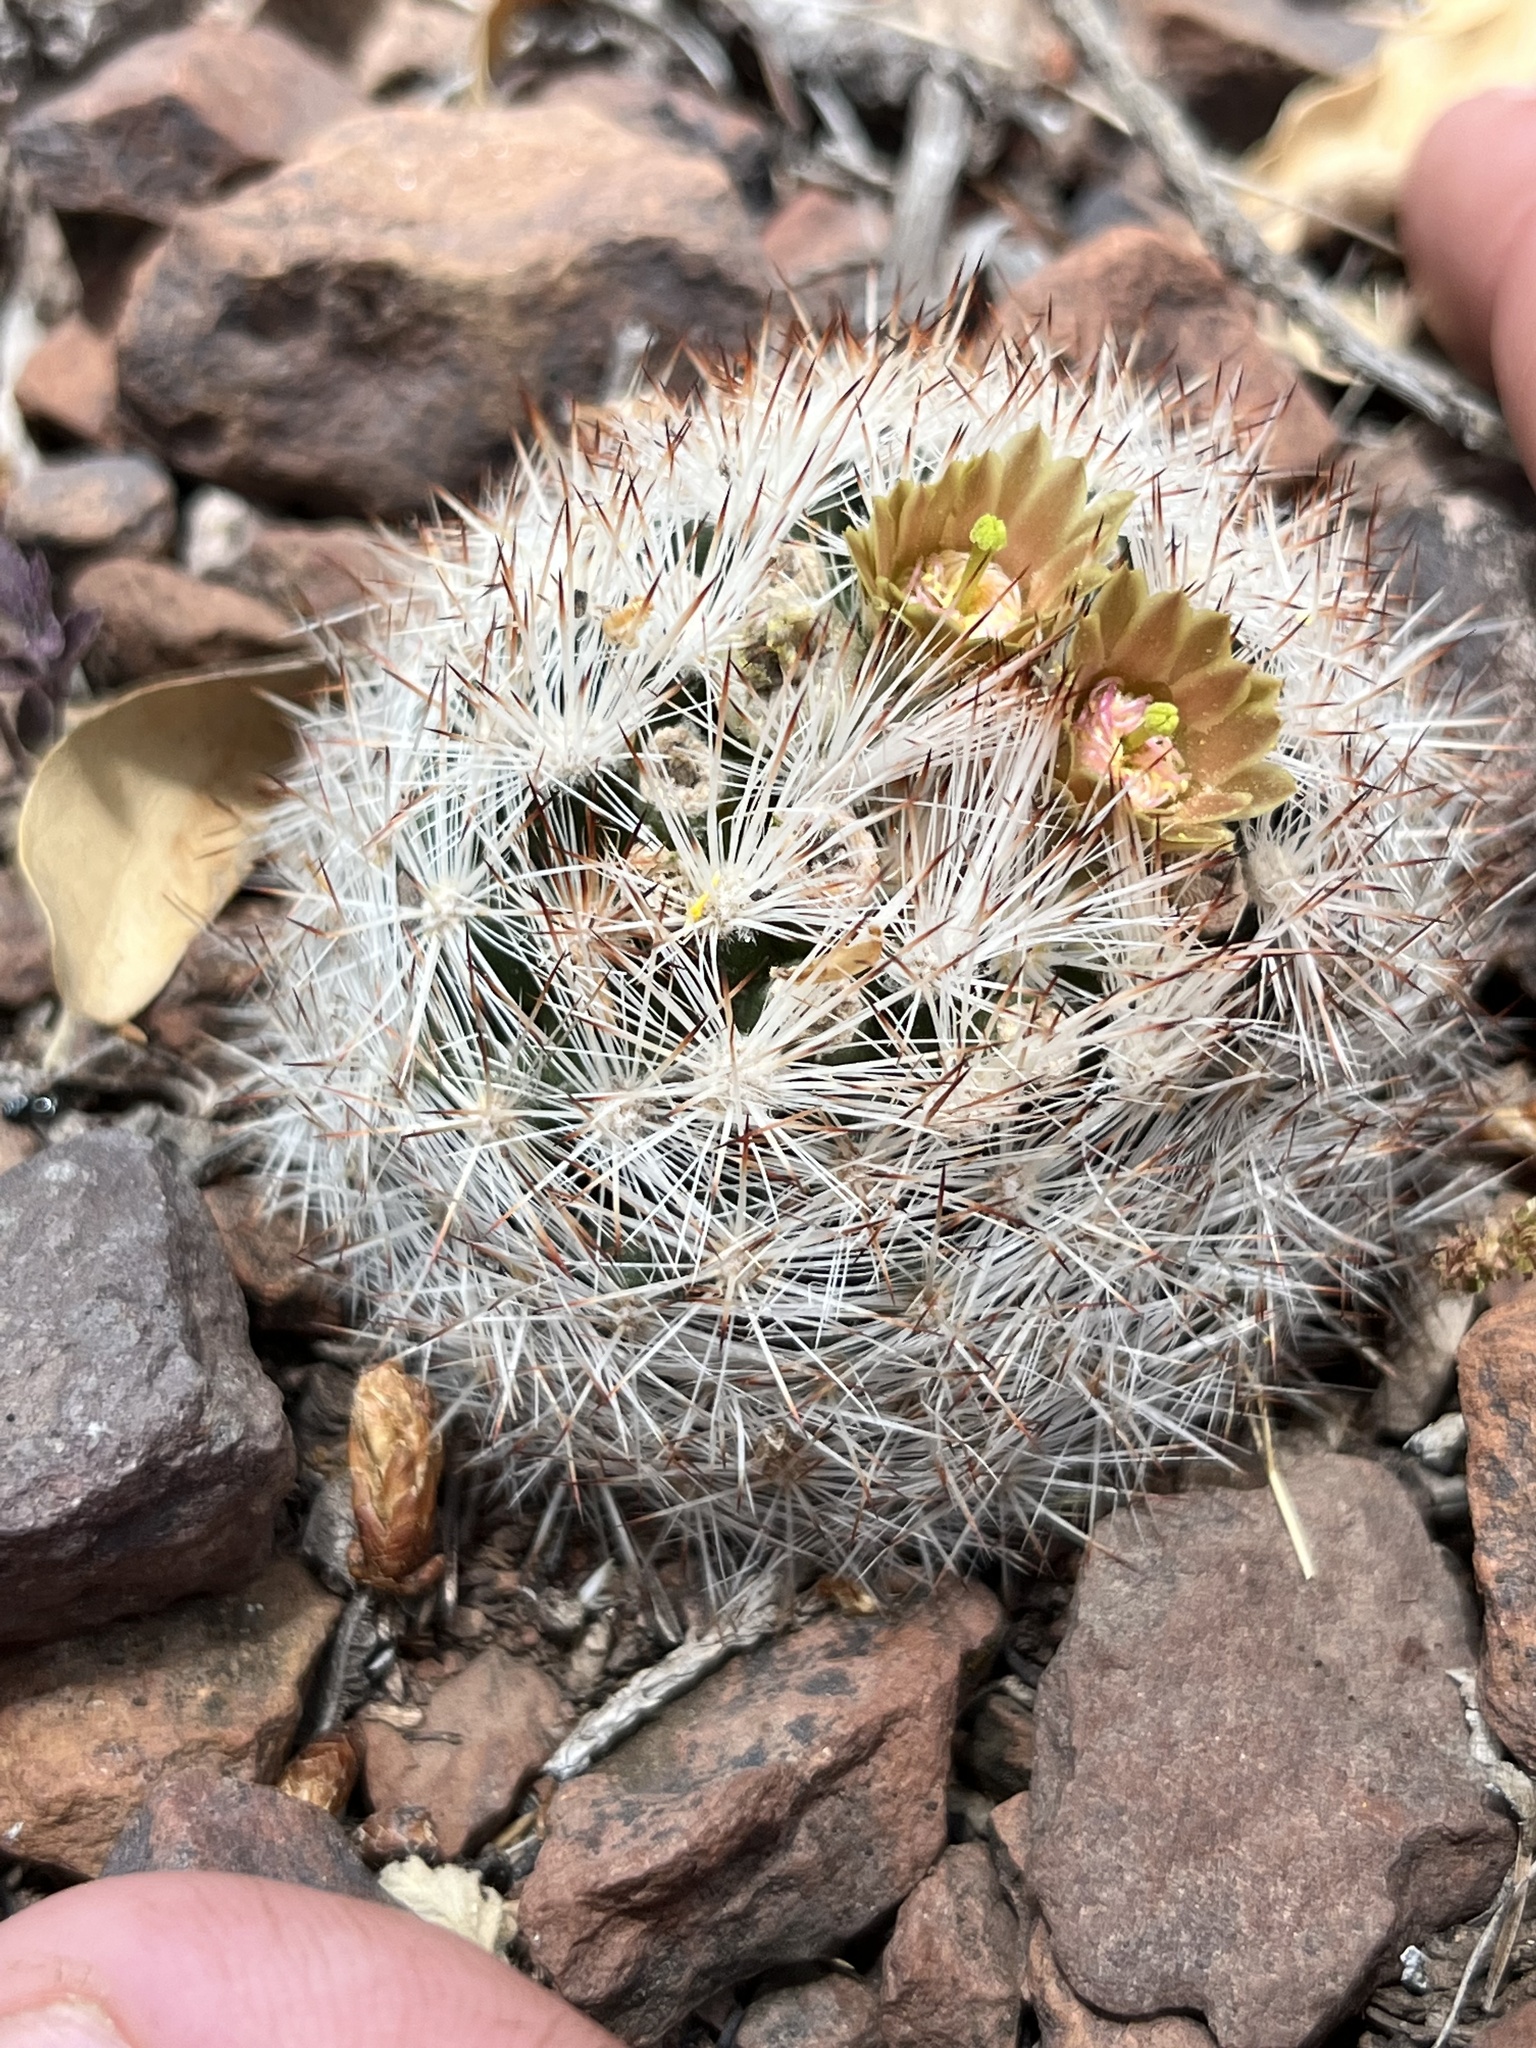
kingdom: Plantae
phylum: Tracheophyta
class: Magnoliopsida
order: Caryophyllales
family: Cactaceae
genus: Pelecyphora
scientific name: Pelecyphora dasyacantha
